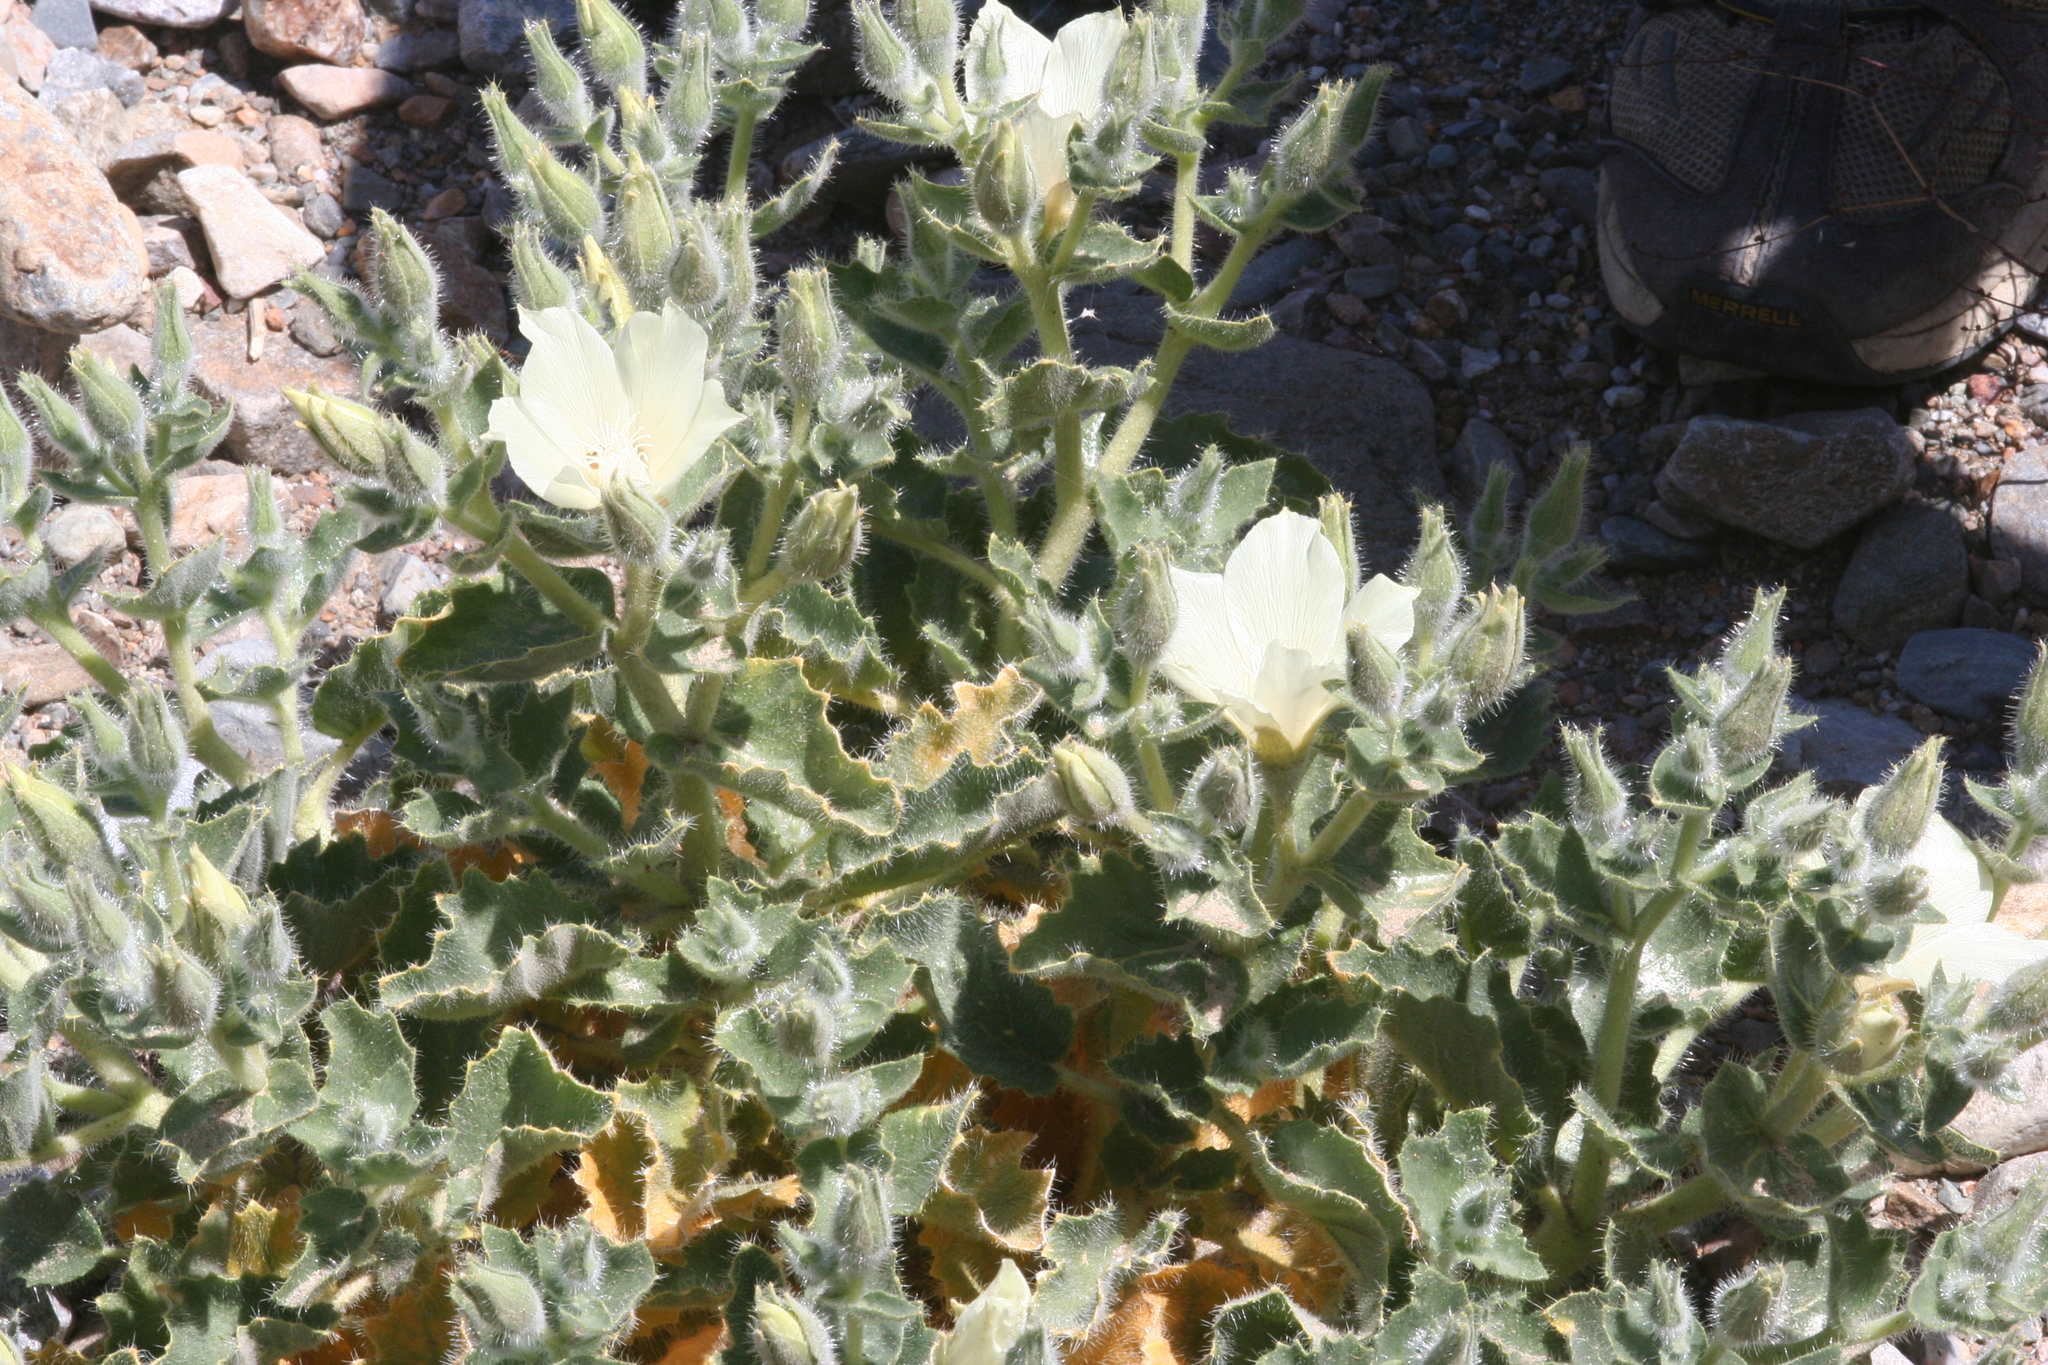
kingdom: Plantae
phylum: Tracheophyta
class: Magnoliopsida
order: Cornales
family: Loasaceae
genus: Eucnide
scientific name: Eucnide urens
